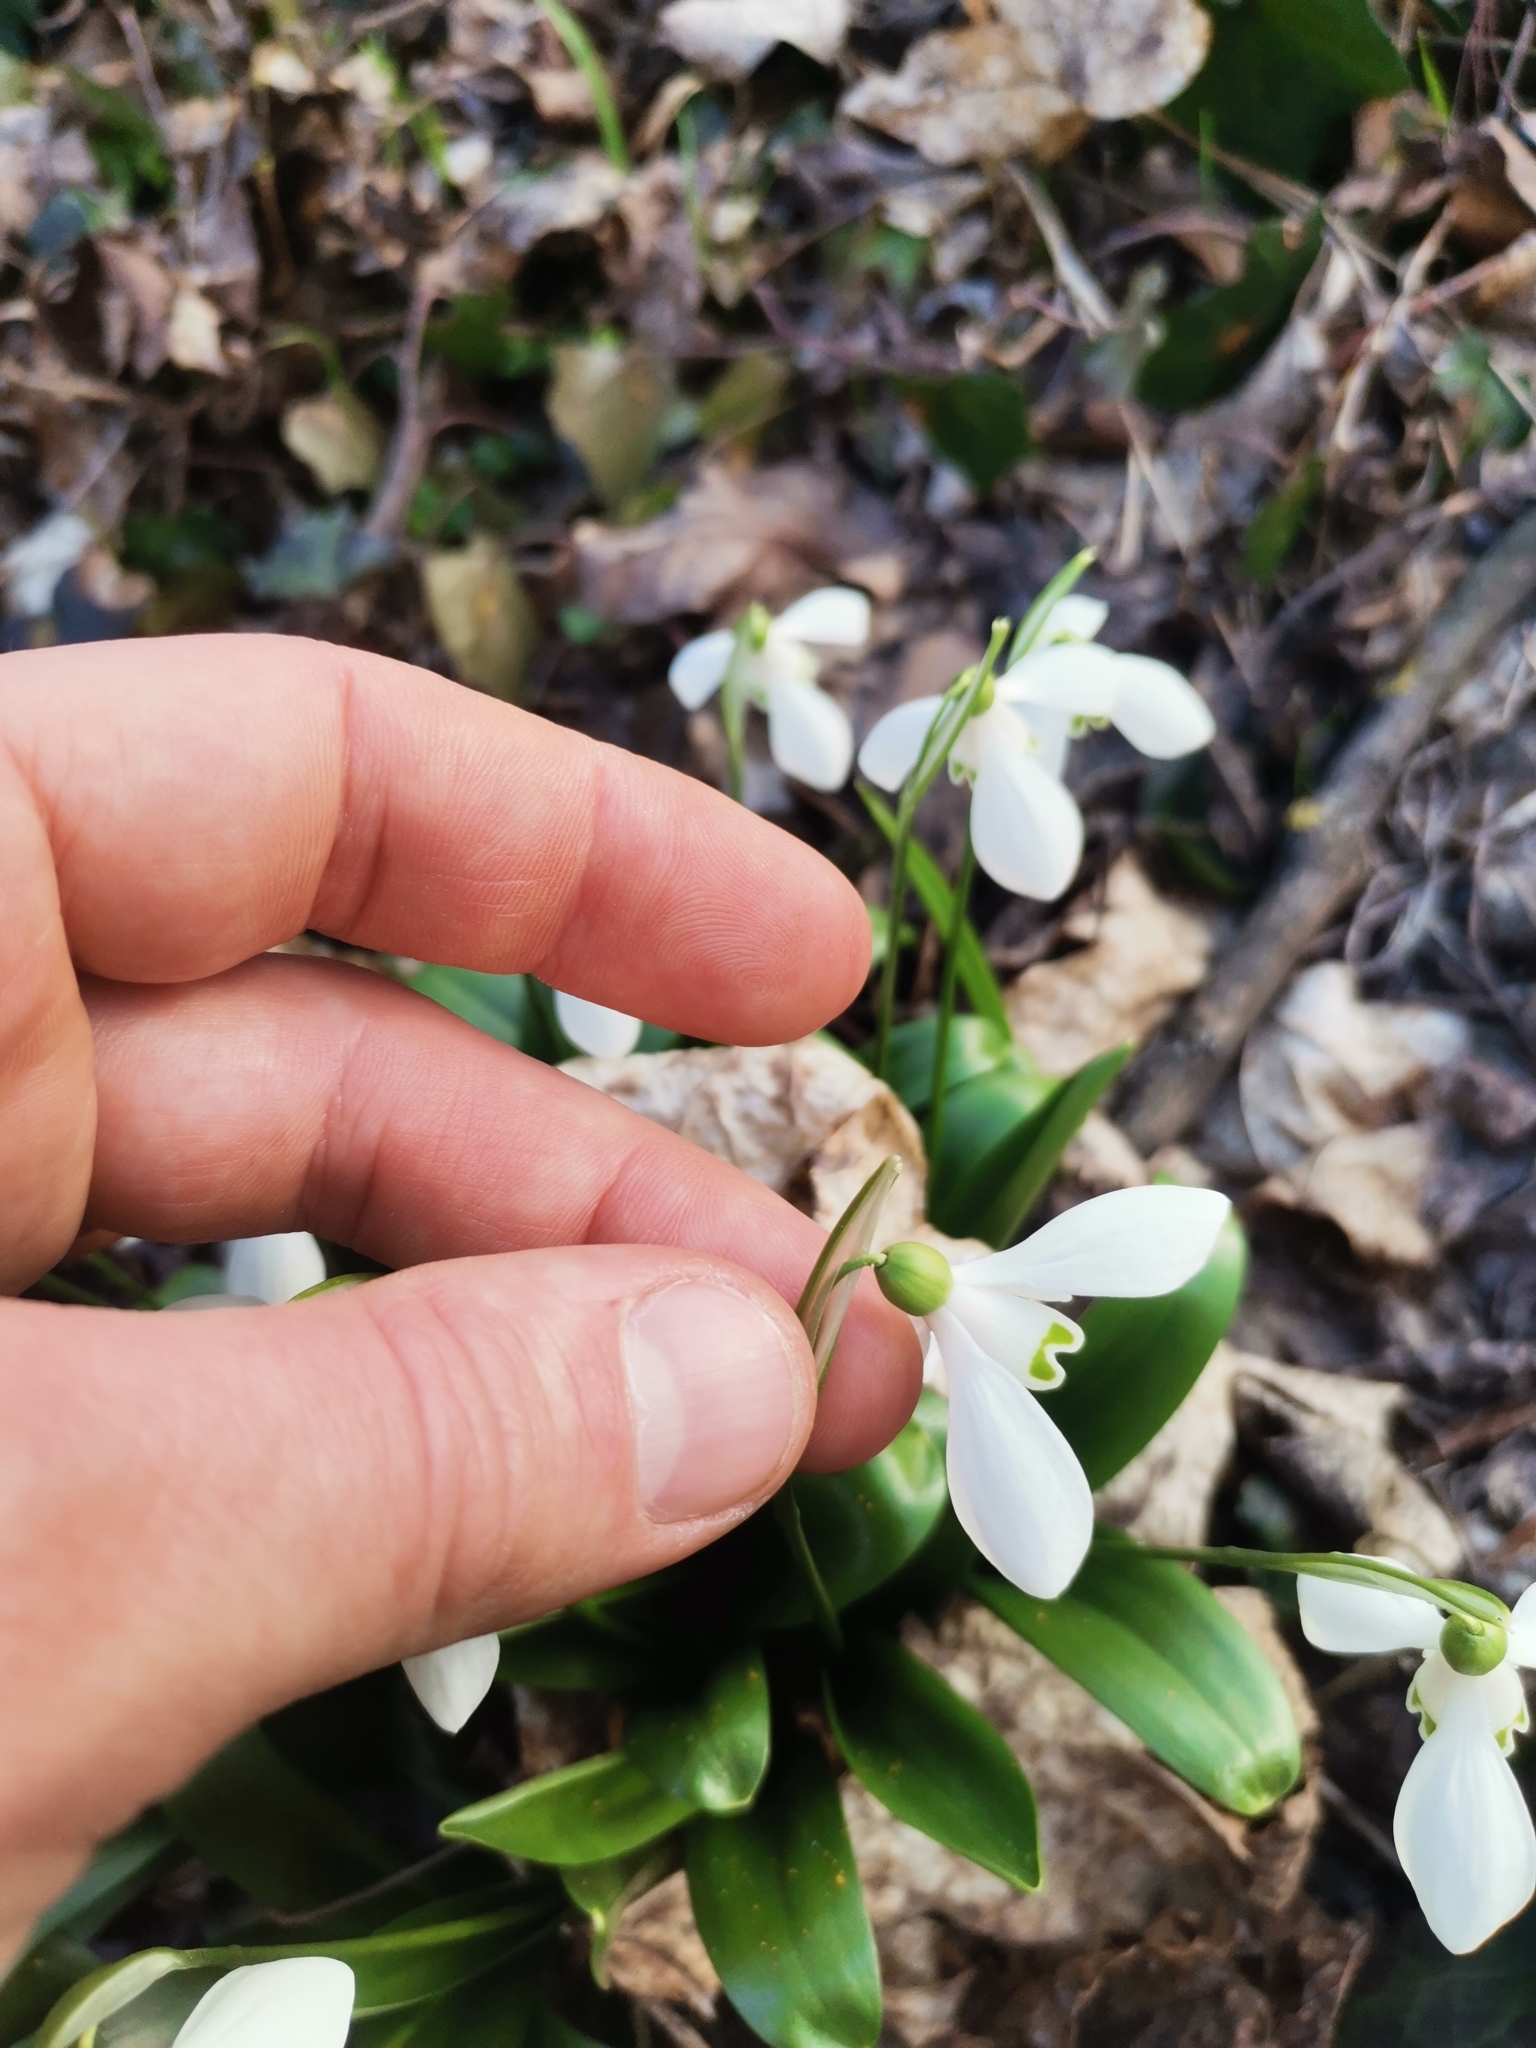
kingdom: Plantae
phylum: Tracheophyta
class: Liliopsida
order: Asparagales
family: Amaryllidaceae
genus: Galanthus
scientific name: Galanthus woronowii
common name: Green snowdrop
